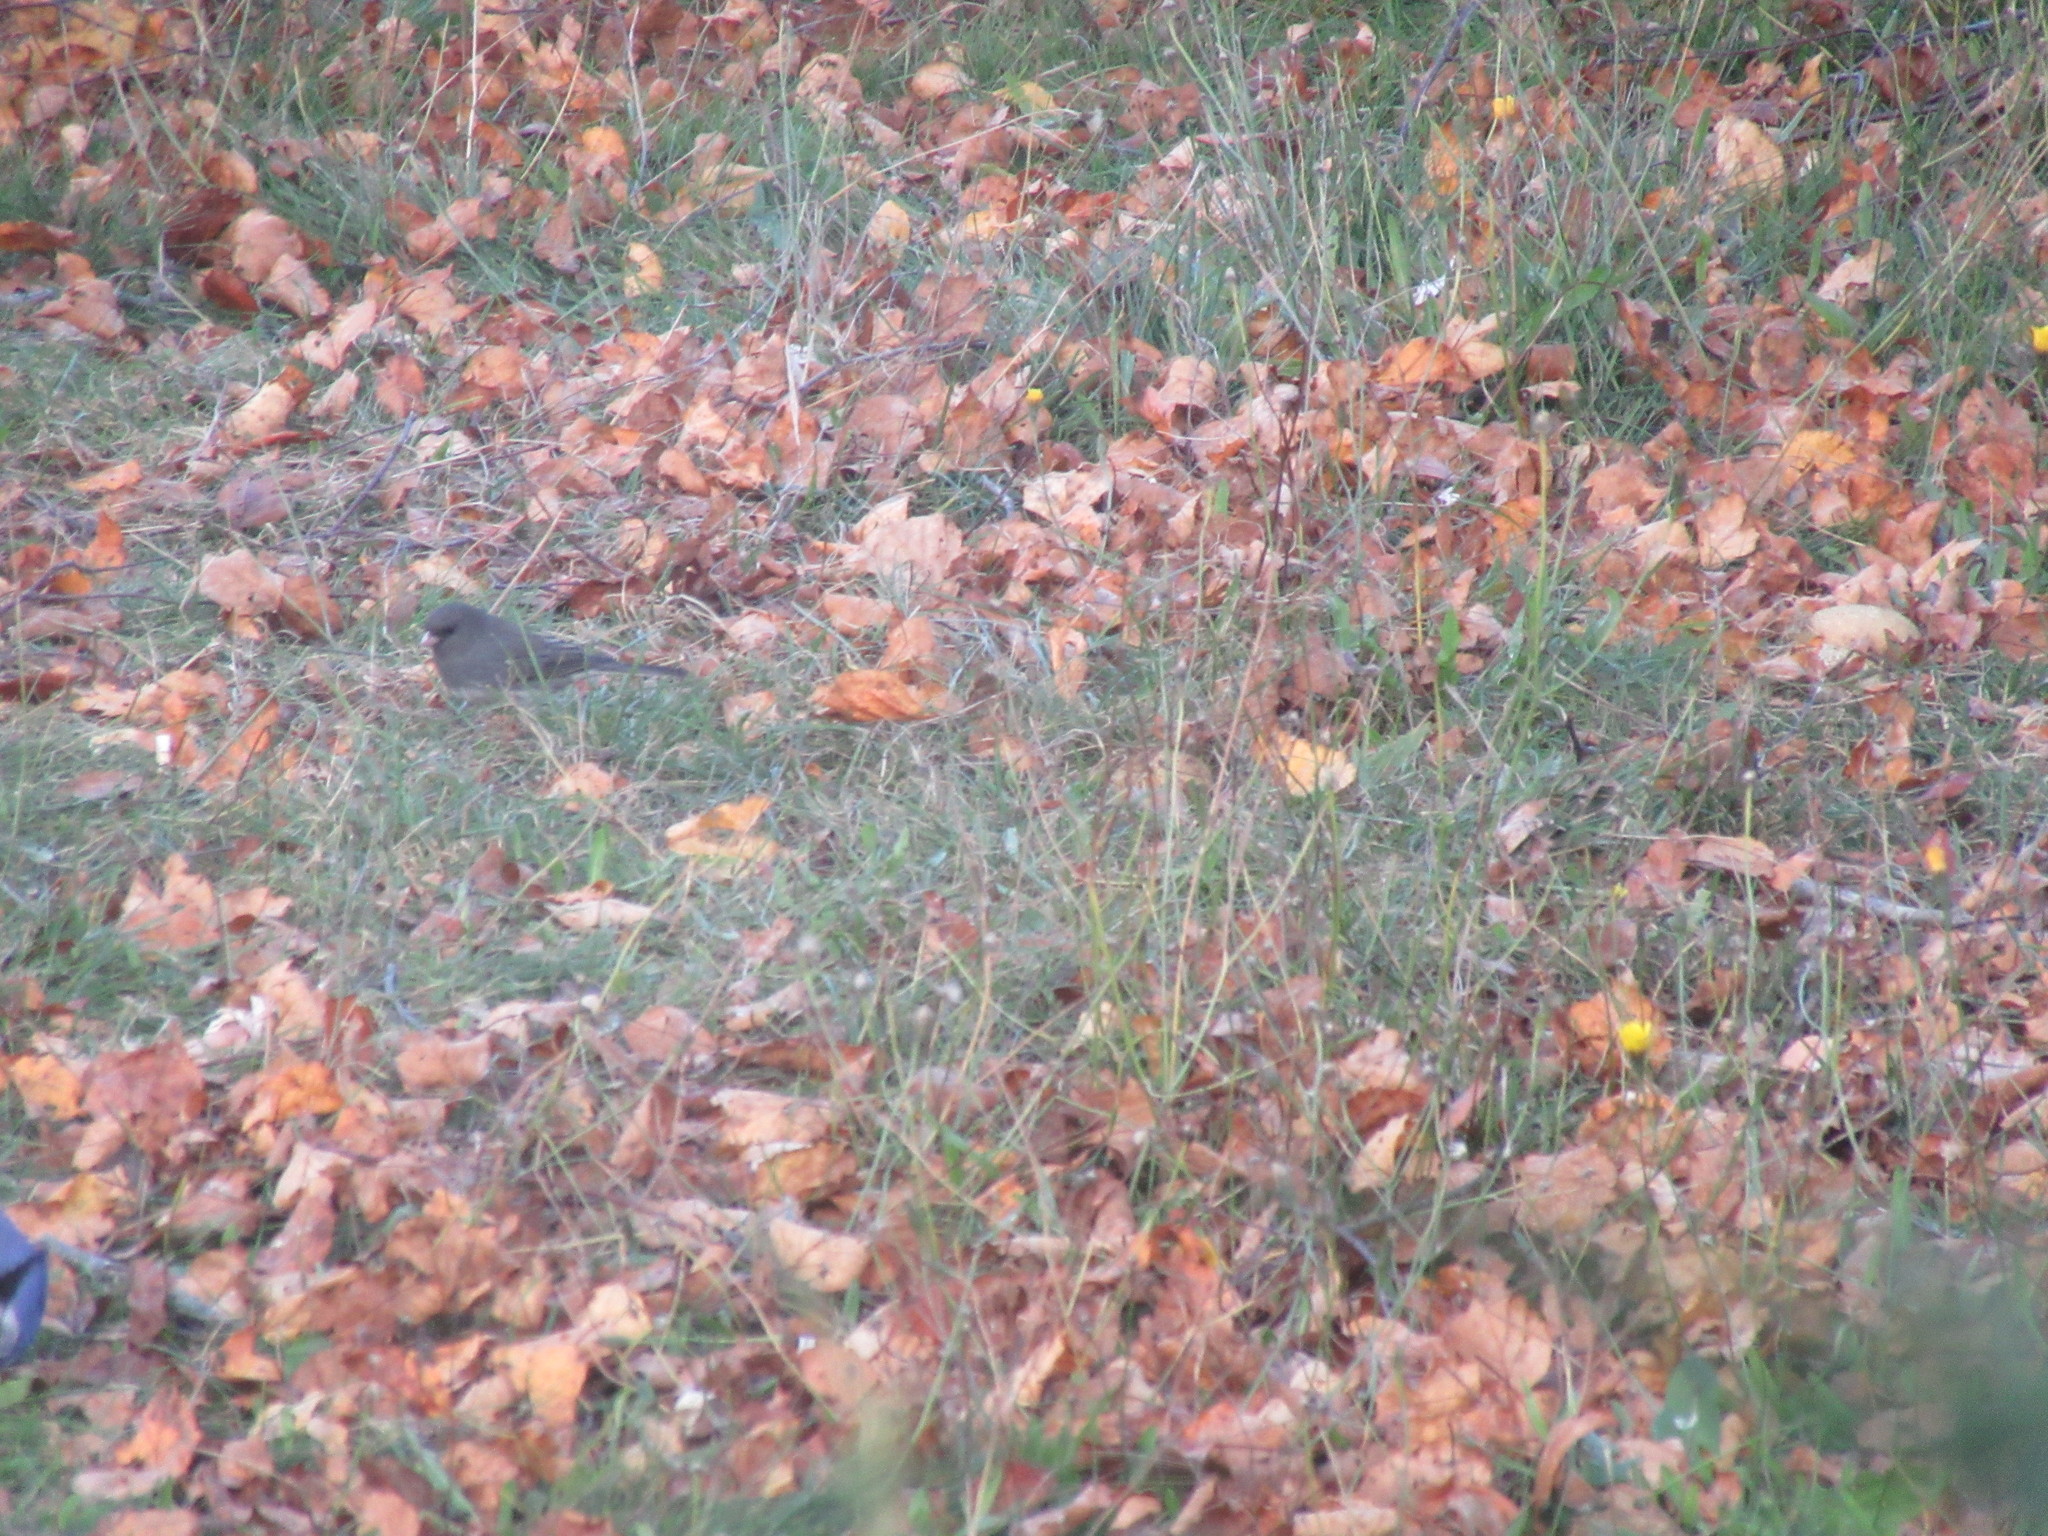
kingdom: Animalia
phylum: Chordata
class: Aves
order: Passeriformes
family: Passerellidae
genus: Junco
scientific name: Junco hyemalis
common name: Dark-eyed junco
